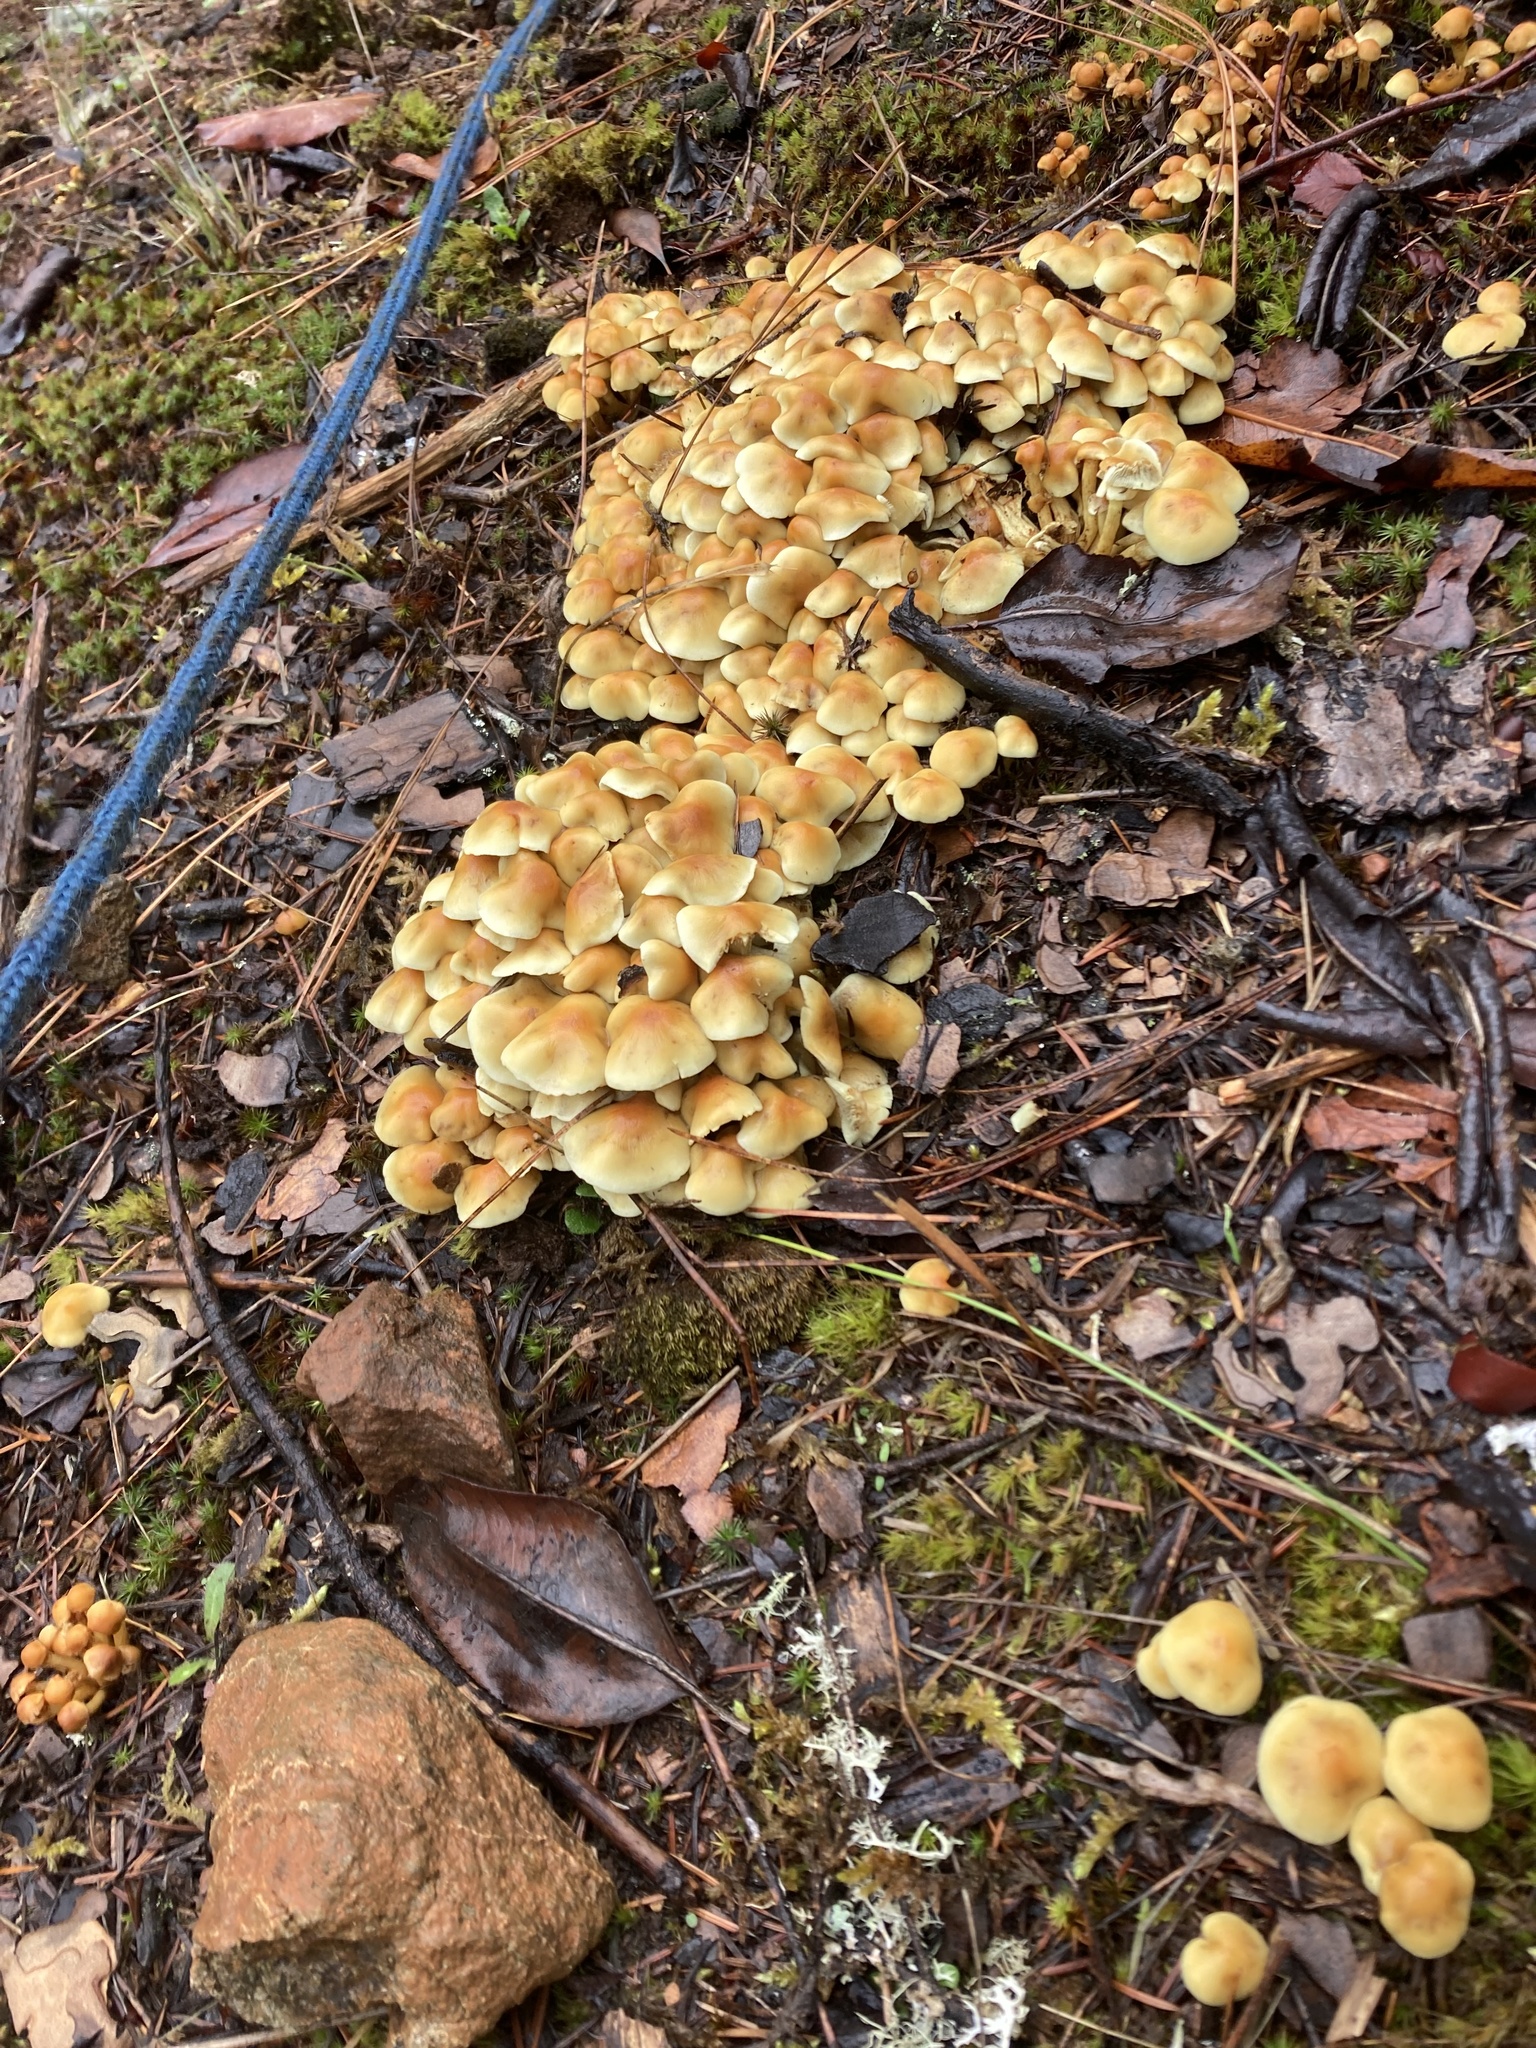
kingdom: Fungi
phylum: Basidiomycota
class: Agaricomycetes
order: Agaricales
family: Strophariaceae
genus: Hypholoma
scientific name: Hypholoma fasciculare
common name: Sulphur tuft
